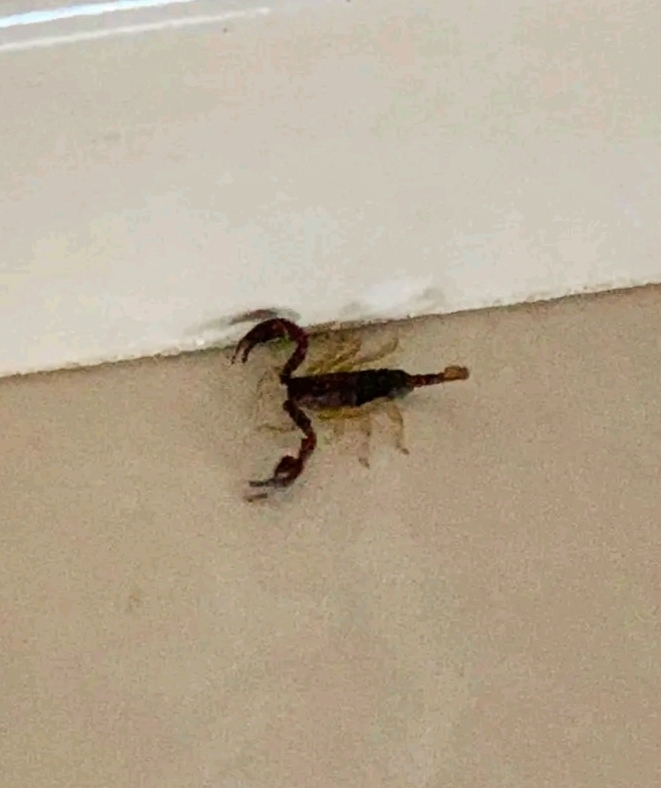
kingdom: Animalia
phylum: Arthropoda
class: Arachnida
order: Scorpiones
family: Euscorpiidae
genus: Euscorpius
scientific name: Euscorpius
